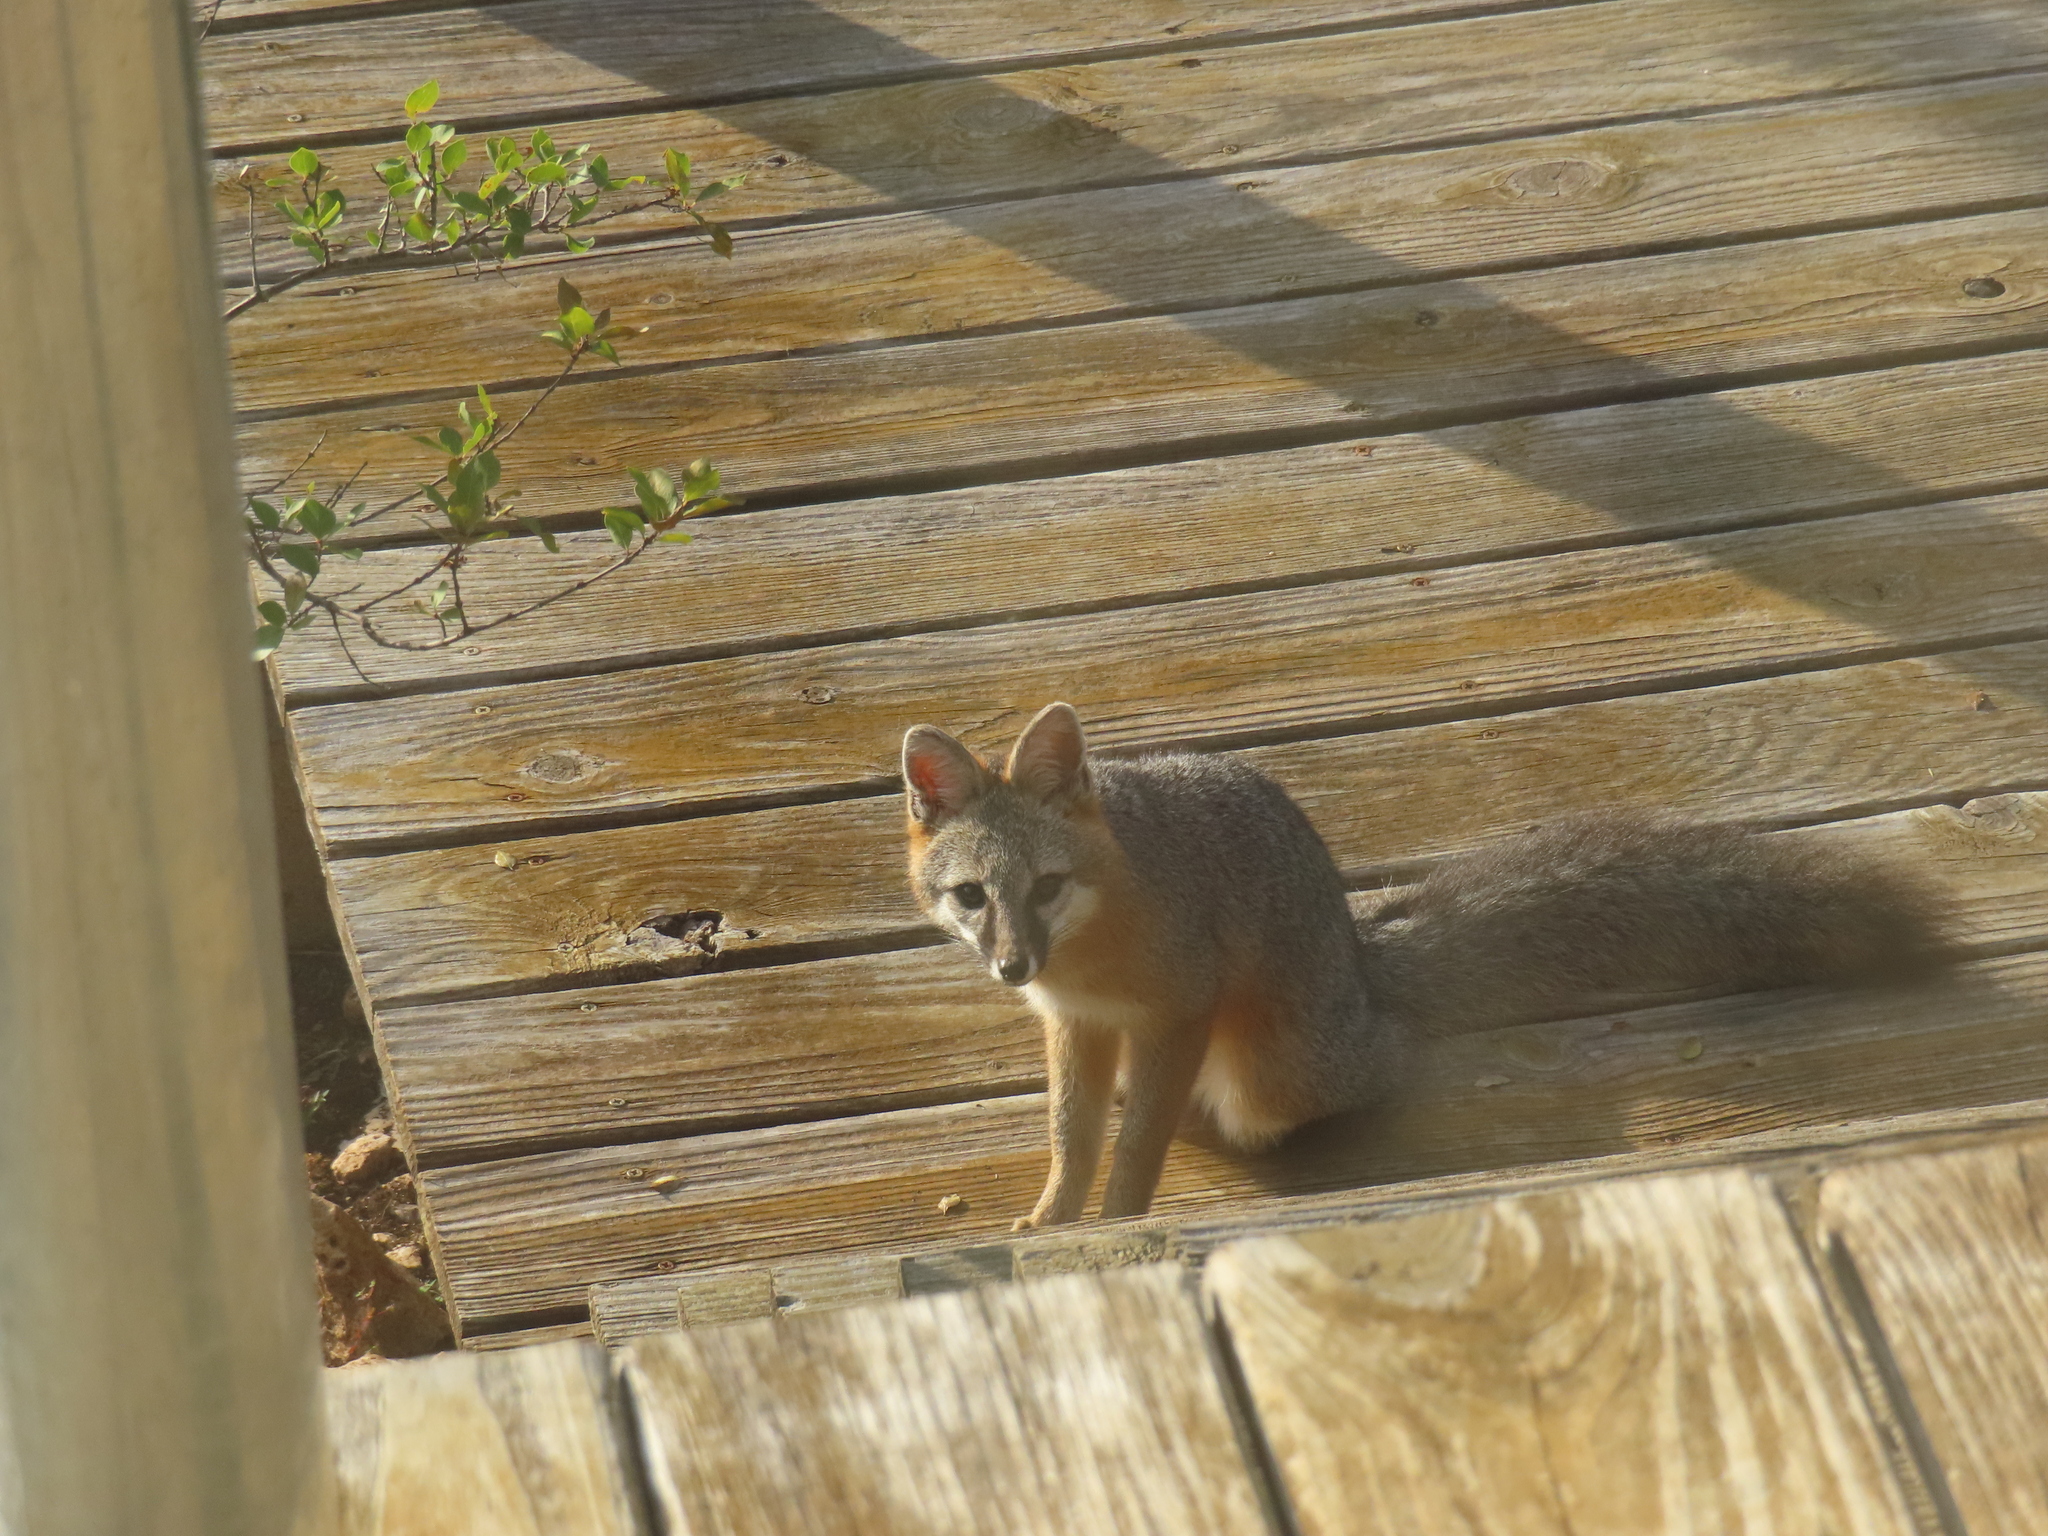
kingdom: Animalia
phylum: Chordata
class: Mammalia
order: Carnivora
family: Canidae
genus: Urocyon
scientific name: Urocyon cinereoargenteus
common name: Gray fox
